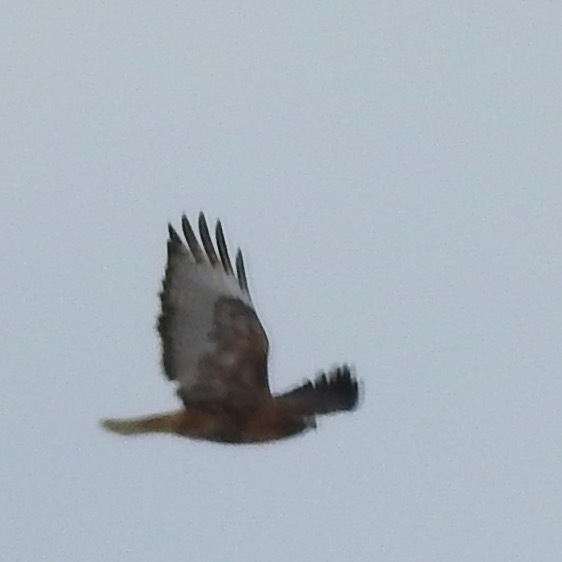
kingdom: Animalia
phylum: Chordata
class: Aves
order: Accipitriformes
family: Accipitridae
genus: Buteo
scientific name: Buteo jamaicensis
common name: Red-tailed hawk
